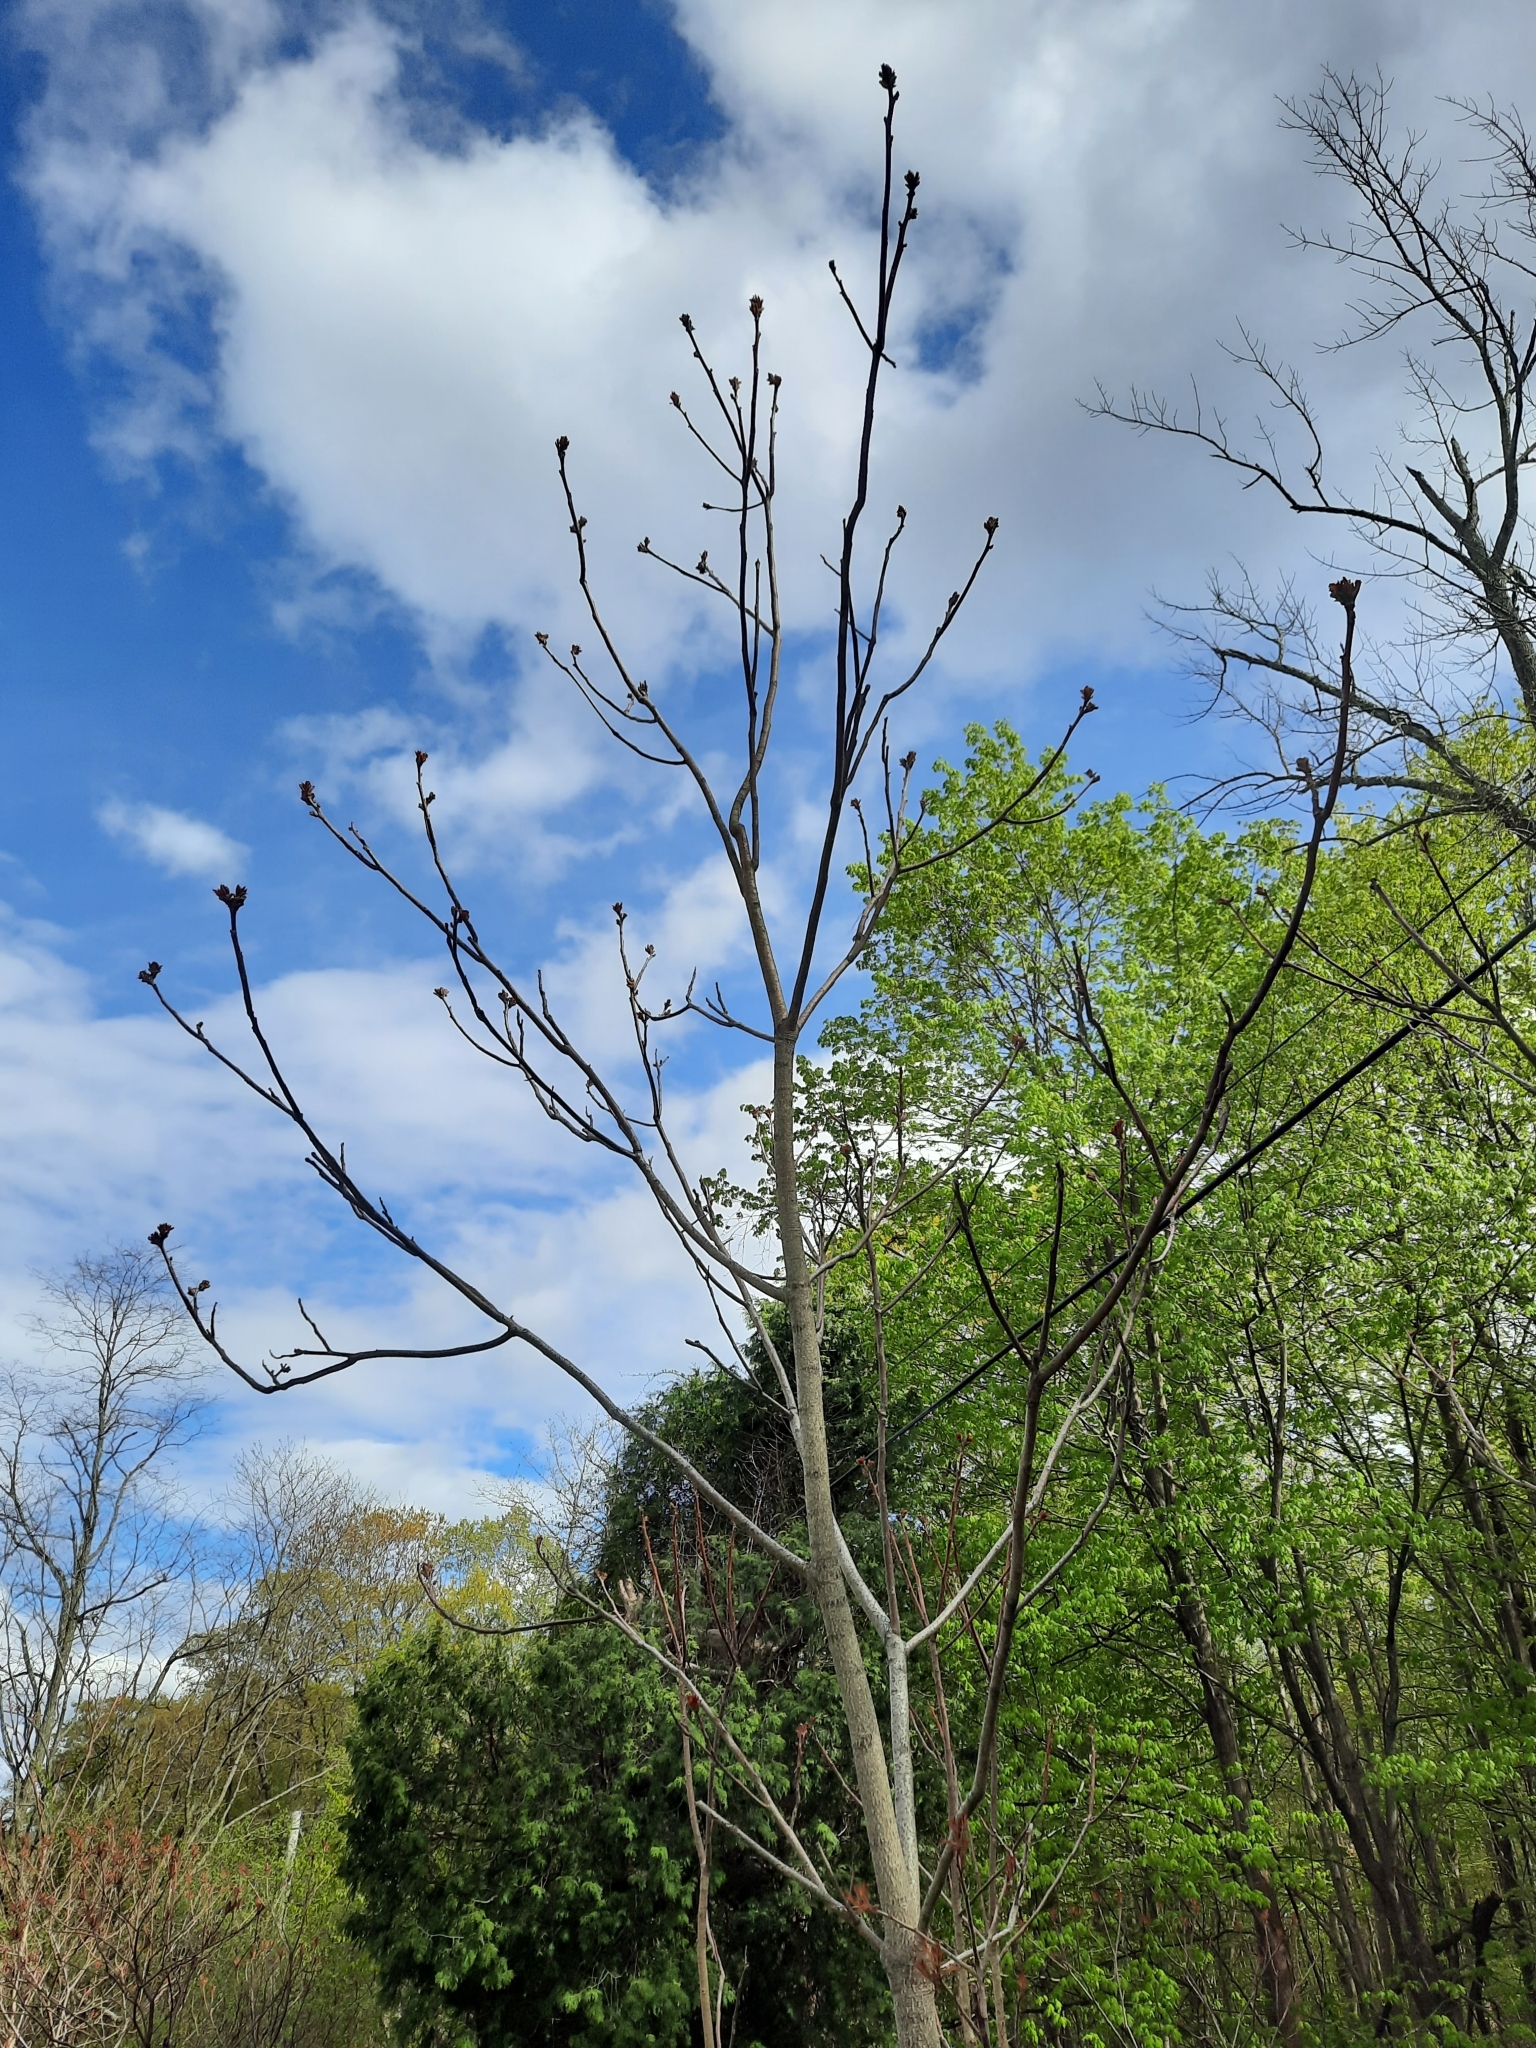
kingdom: Plantae
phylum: Tracheophyta
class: Magnoliopsida
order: Sapindales
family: Simaroubaceae
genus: Ailanthus
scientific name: Ailanthus altissima
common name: Tree-of-heaven
